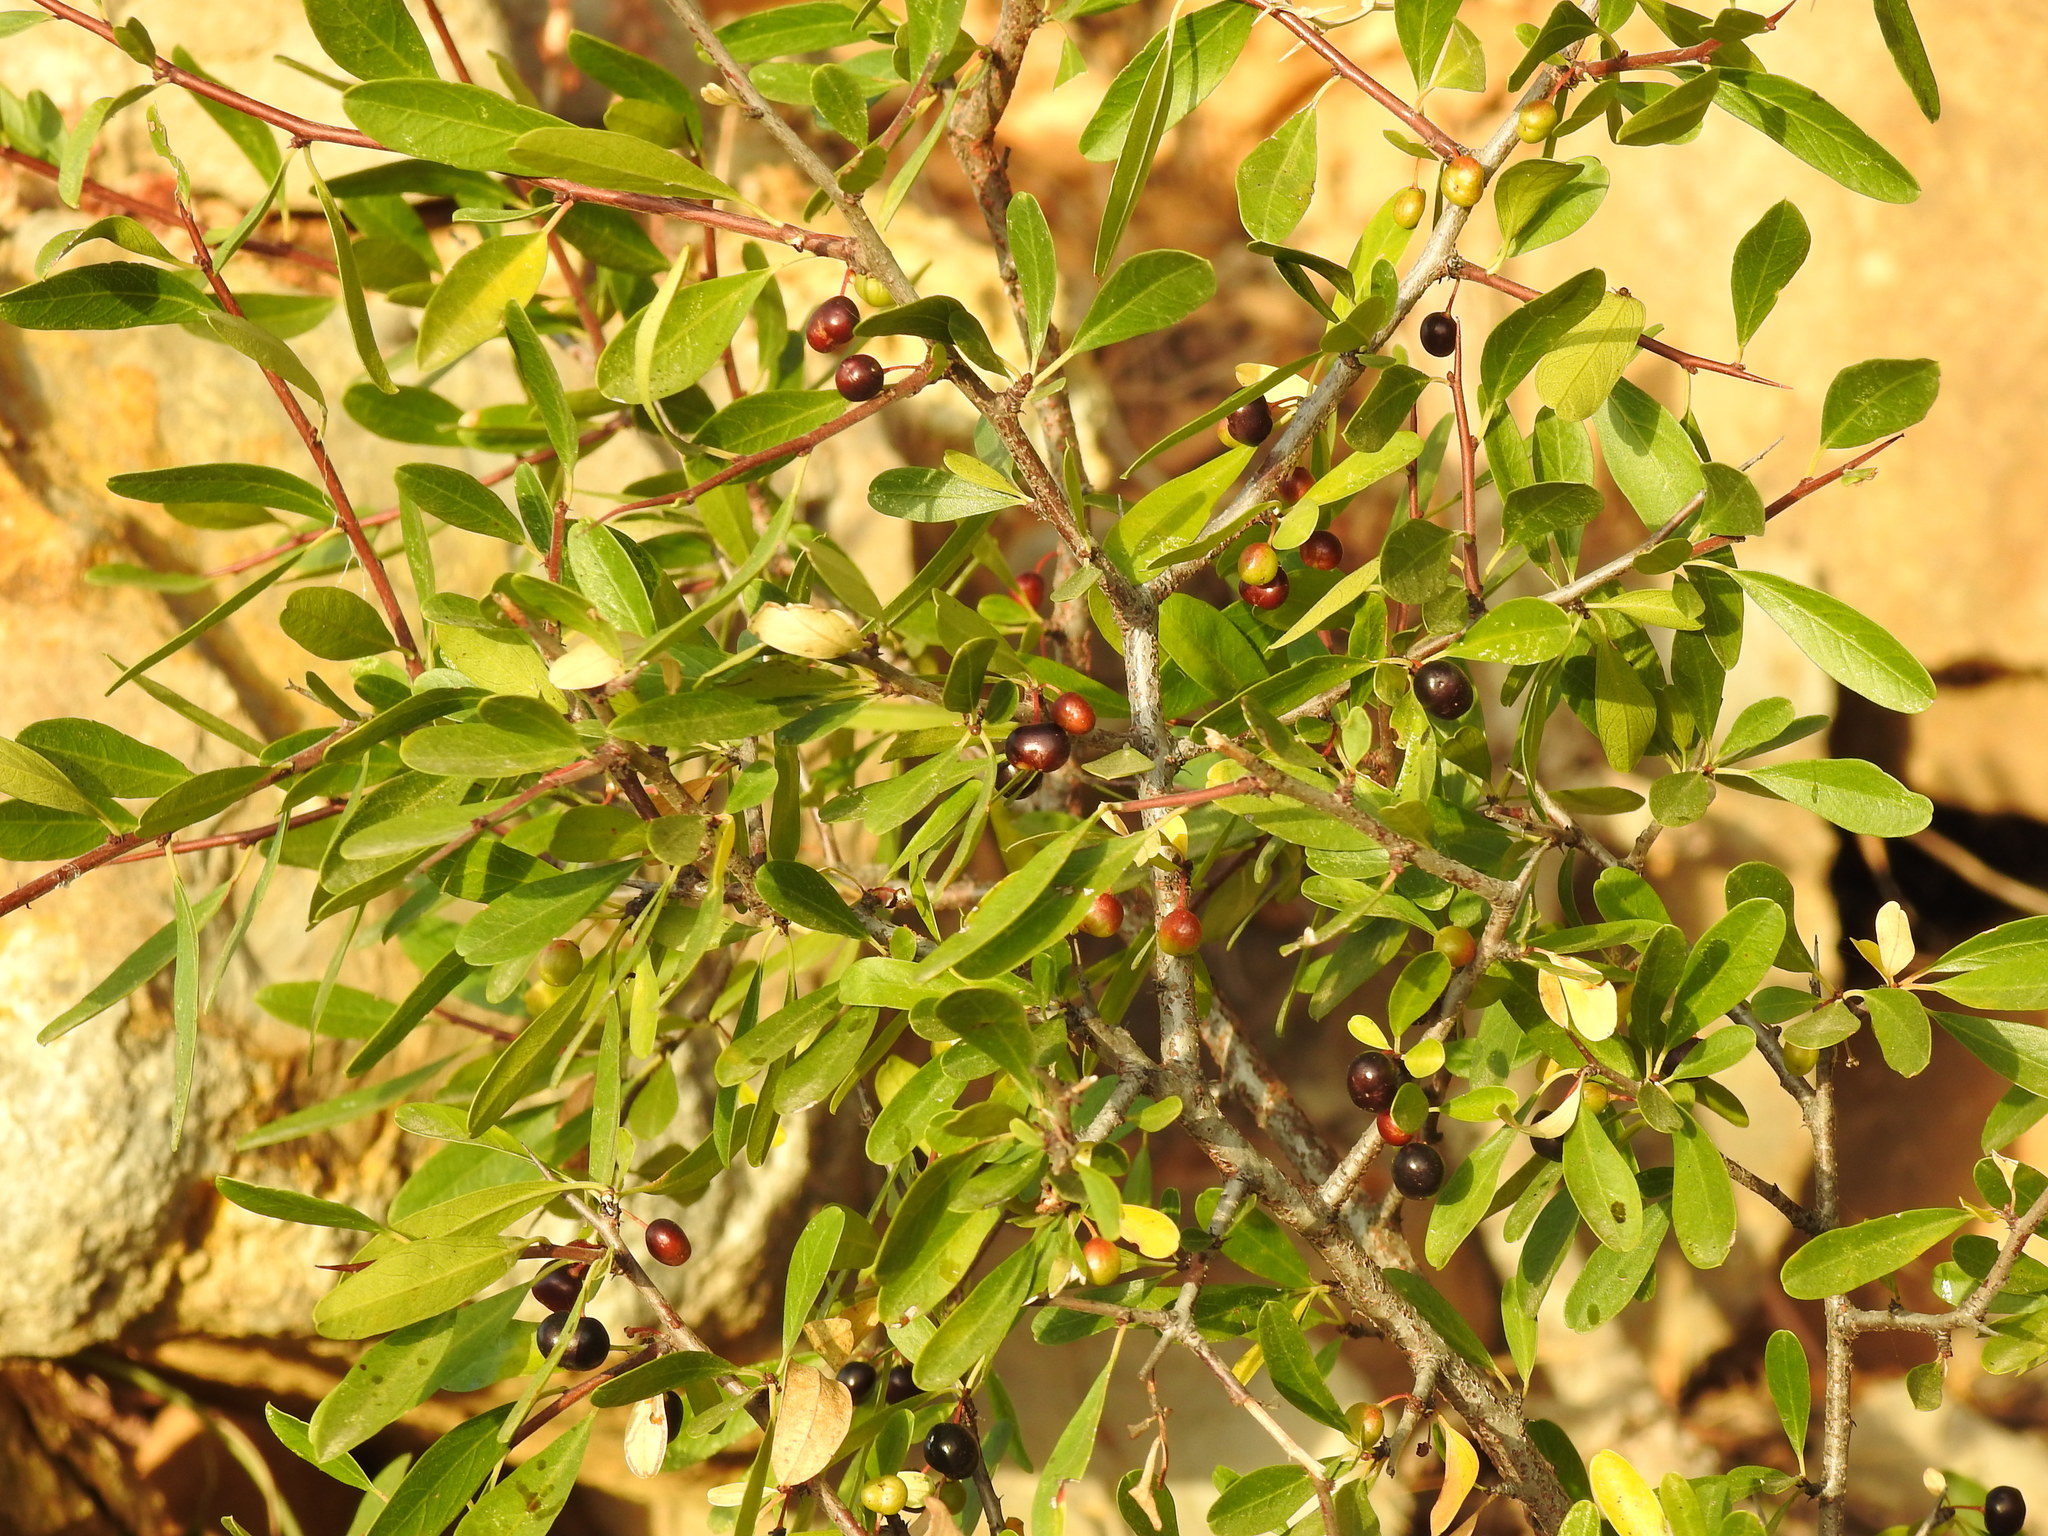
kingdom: Plantae
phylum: Tracheophyta
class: Magnoliopsida
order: Rosales
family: Rhamnaceae
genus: Rhamnus
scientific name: Rhamnus oleoides
